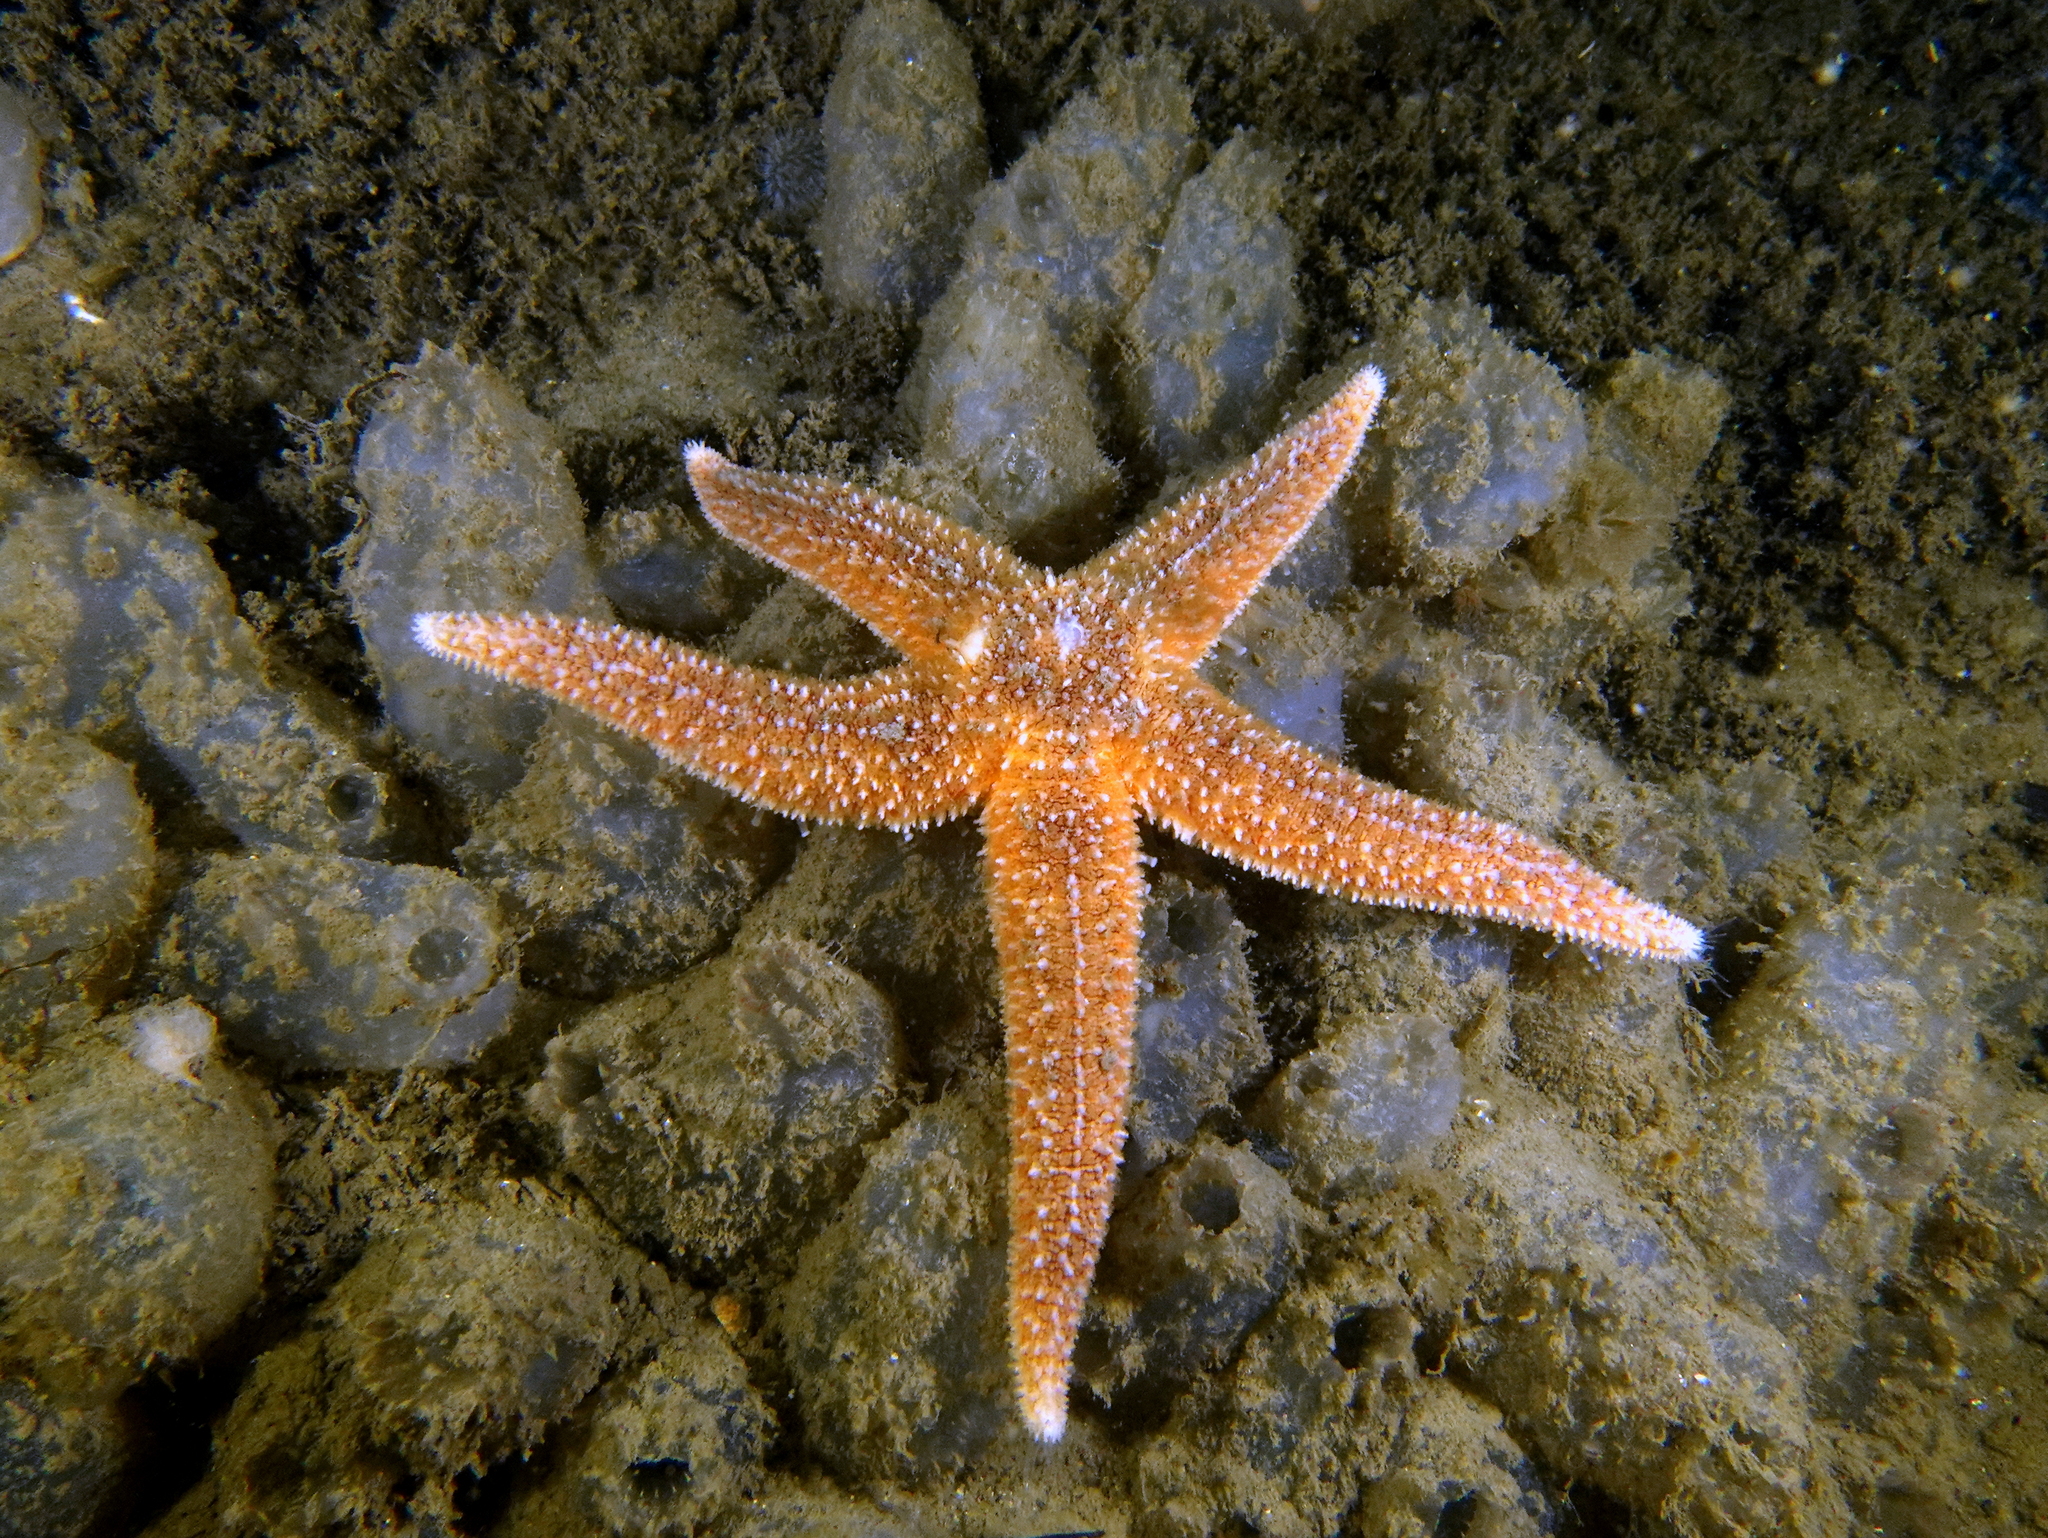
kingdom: Animalia
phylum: Echinodermata
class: Asteroidea
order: Forcipulatida
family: Asteriidae
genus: Asterias
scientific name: Asterias rubens
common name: Common starfish
